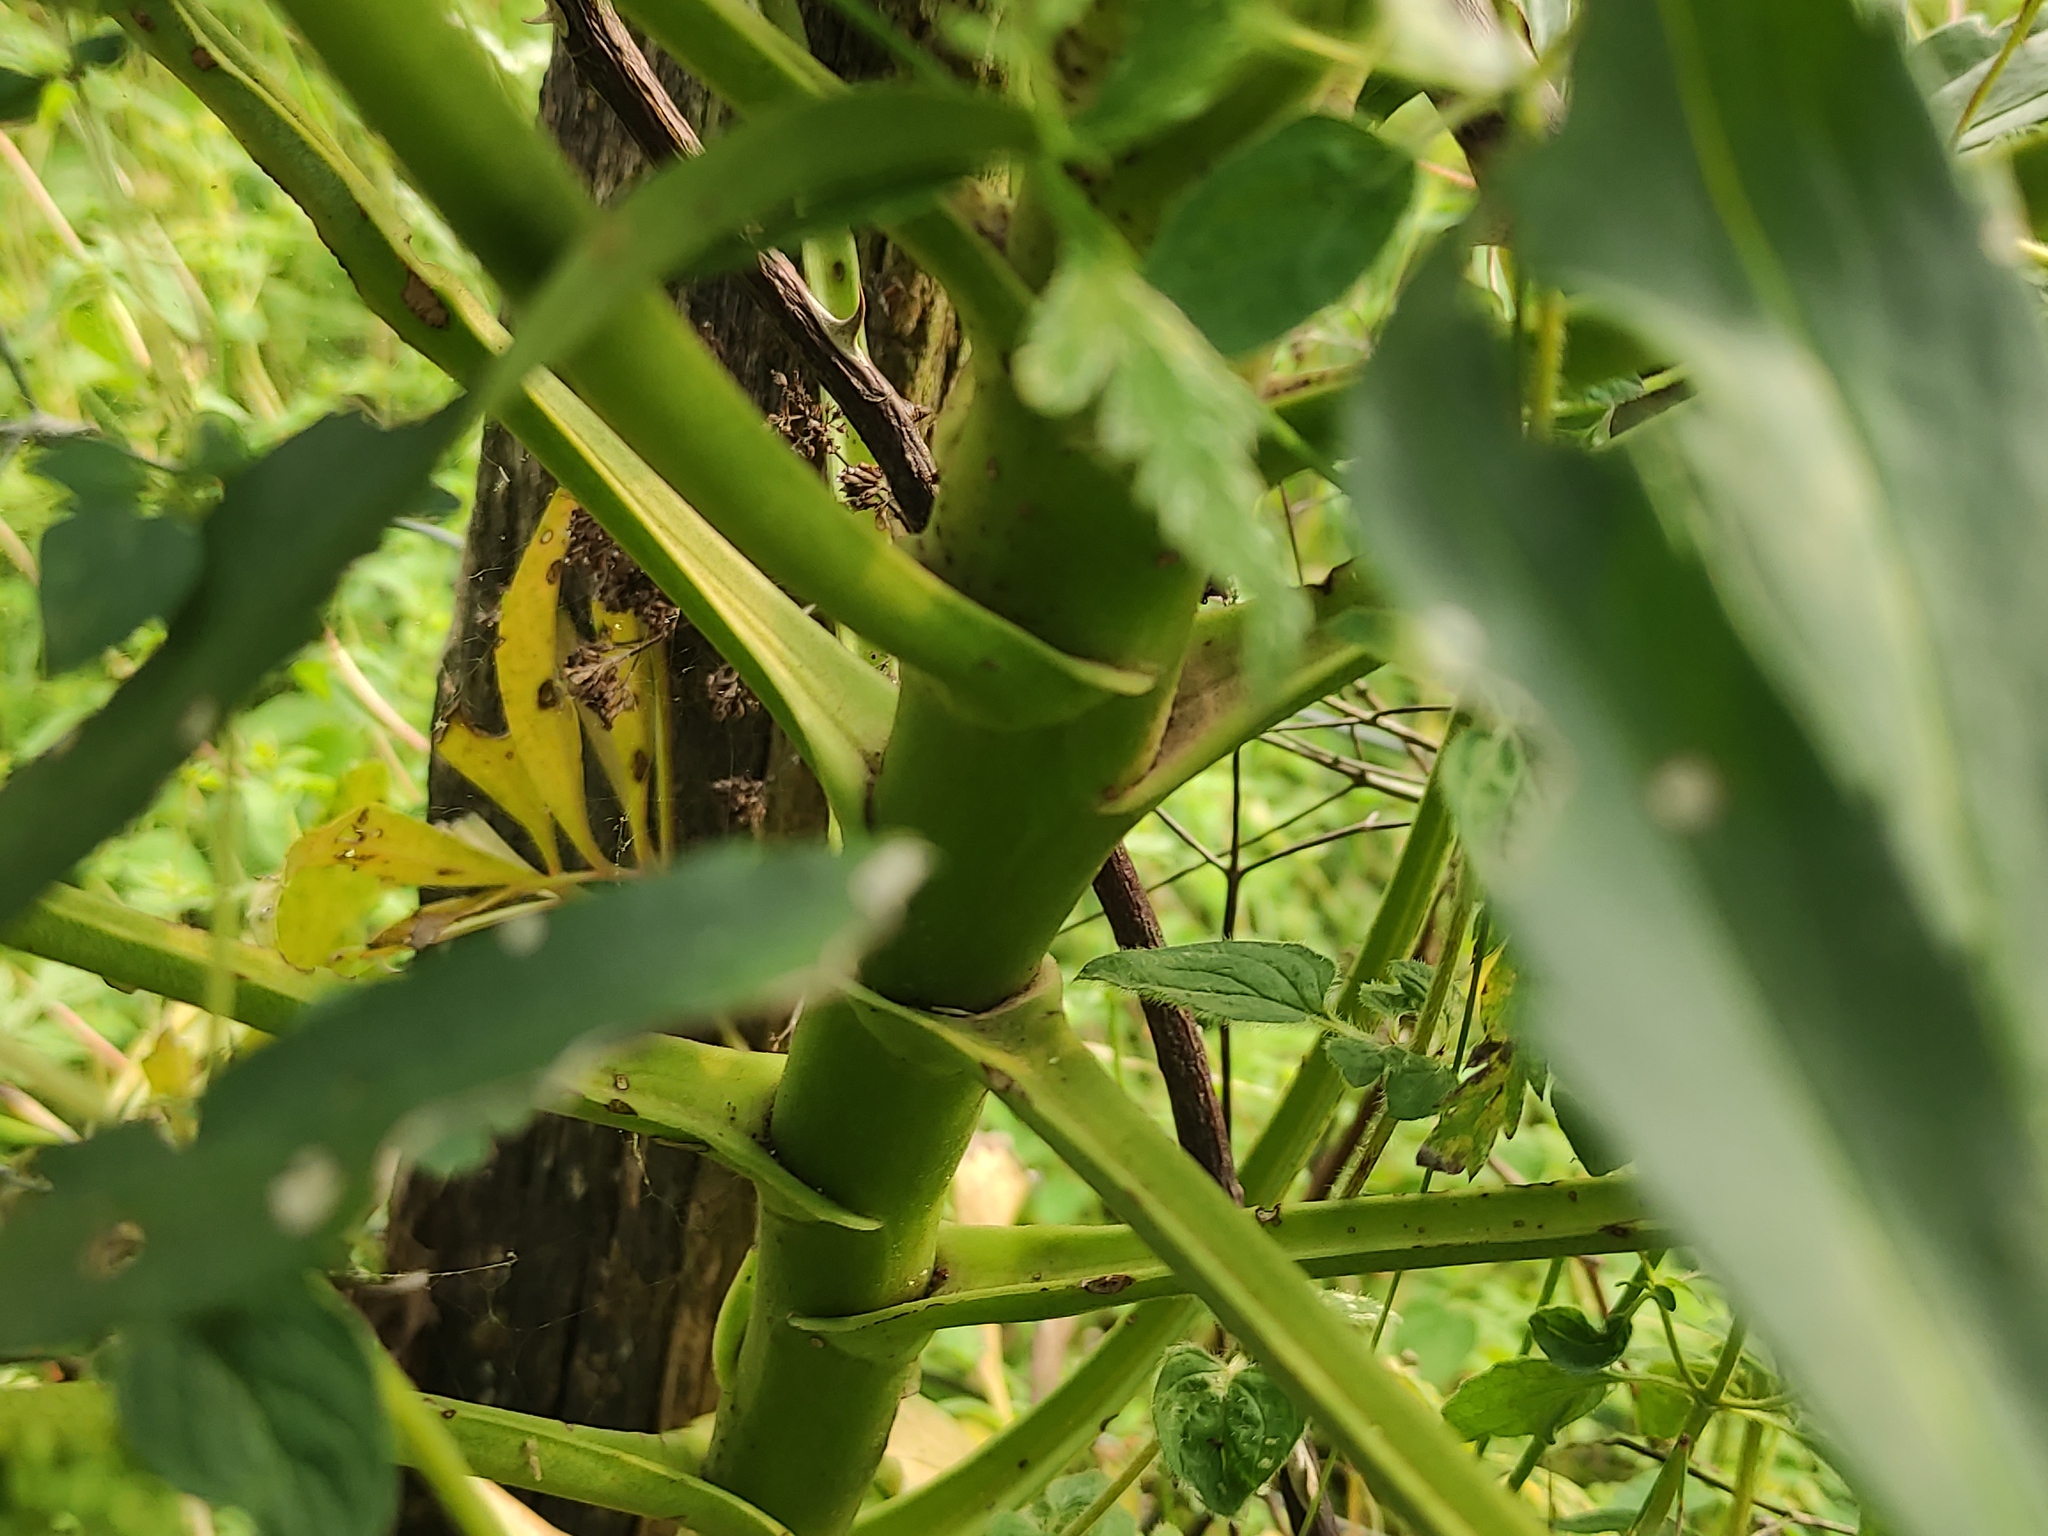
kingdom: Plantae
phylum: Tracheophyta
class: Magnoliopsida
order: Ranunculales
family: Ranunculaceae
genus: Helleborus
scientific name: Helleborus foetidus
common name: Stinking hellebore
